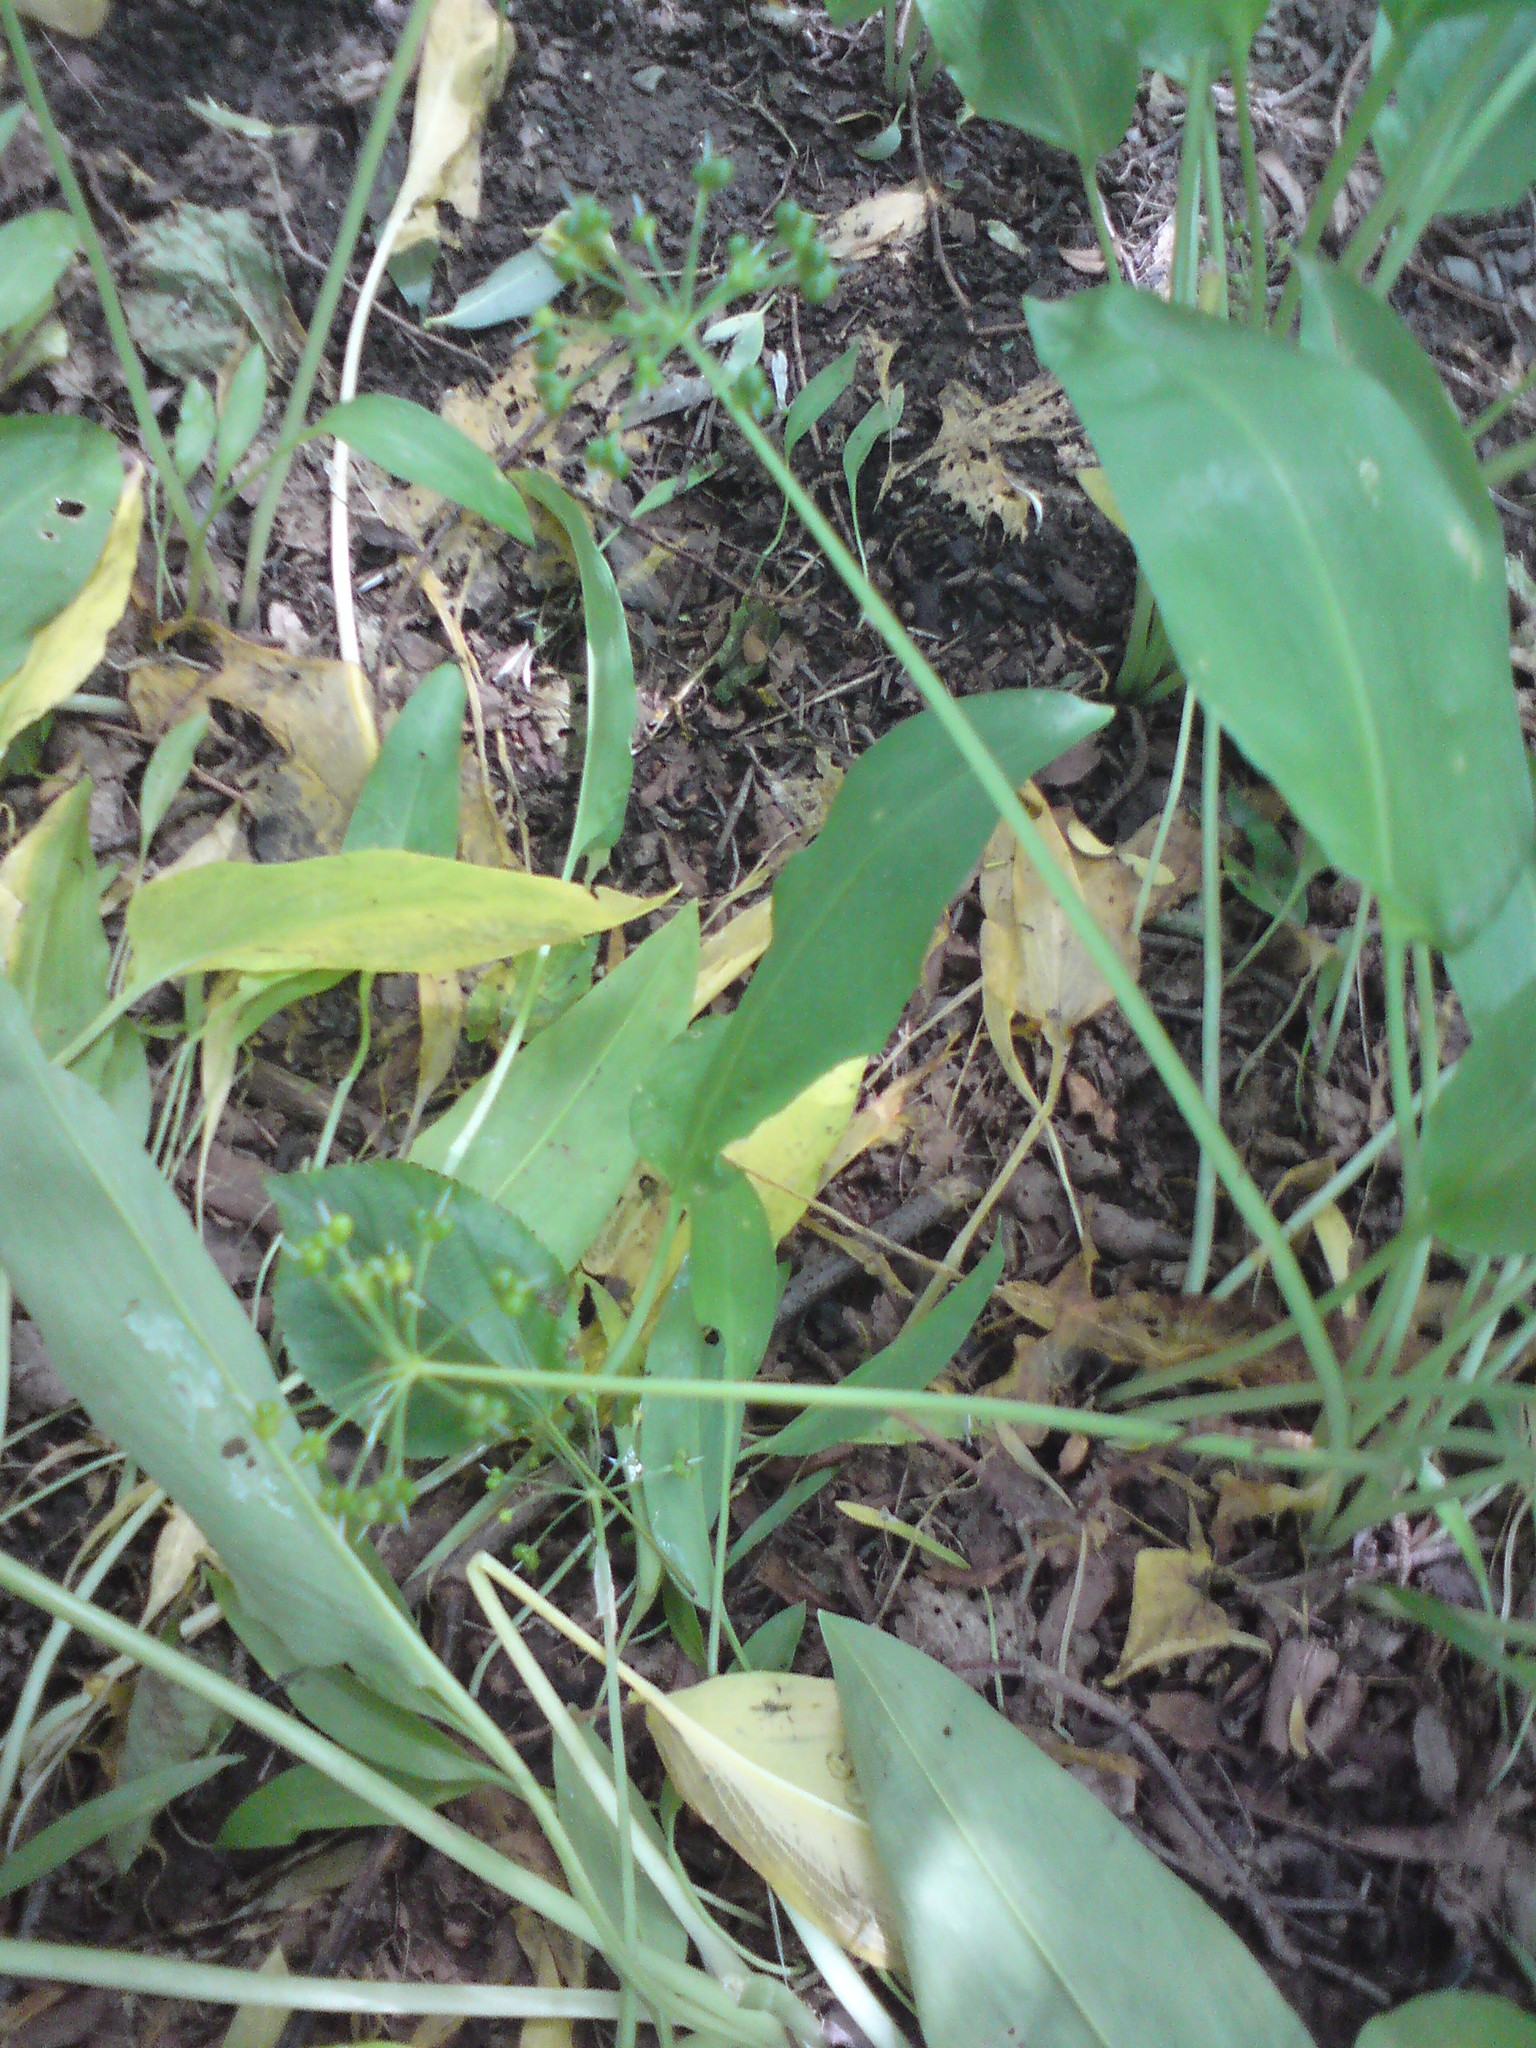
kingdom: Plantae
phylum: Tracheophyta
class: Liliopsida
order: Asparagales
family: Amaryllidaceae
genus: Allium
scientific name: Allium ursinum
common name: Ramsons
